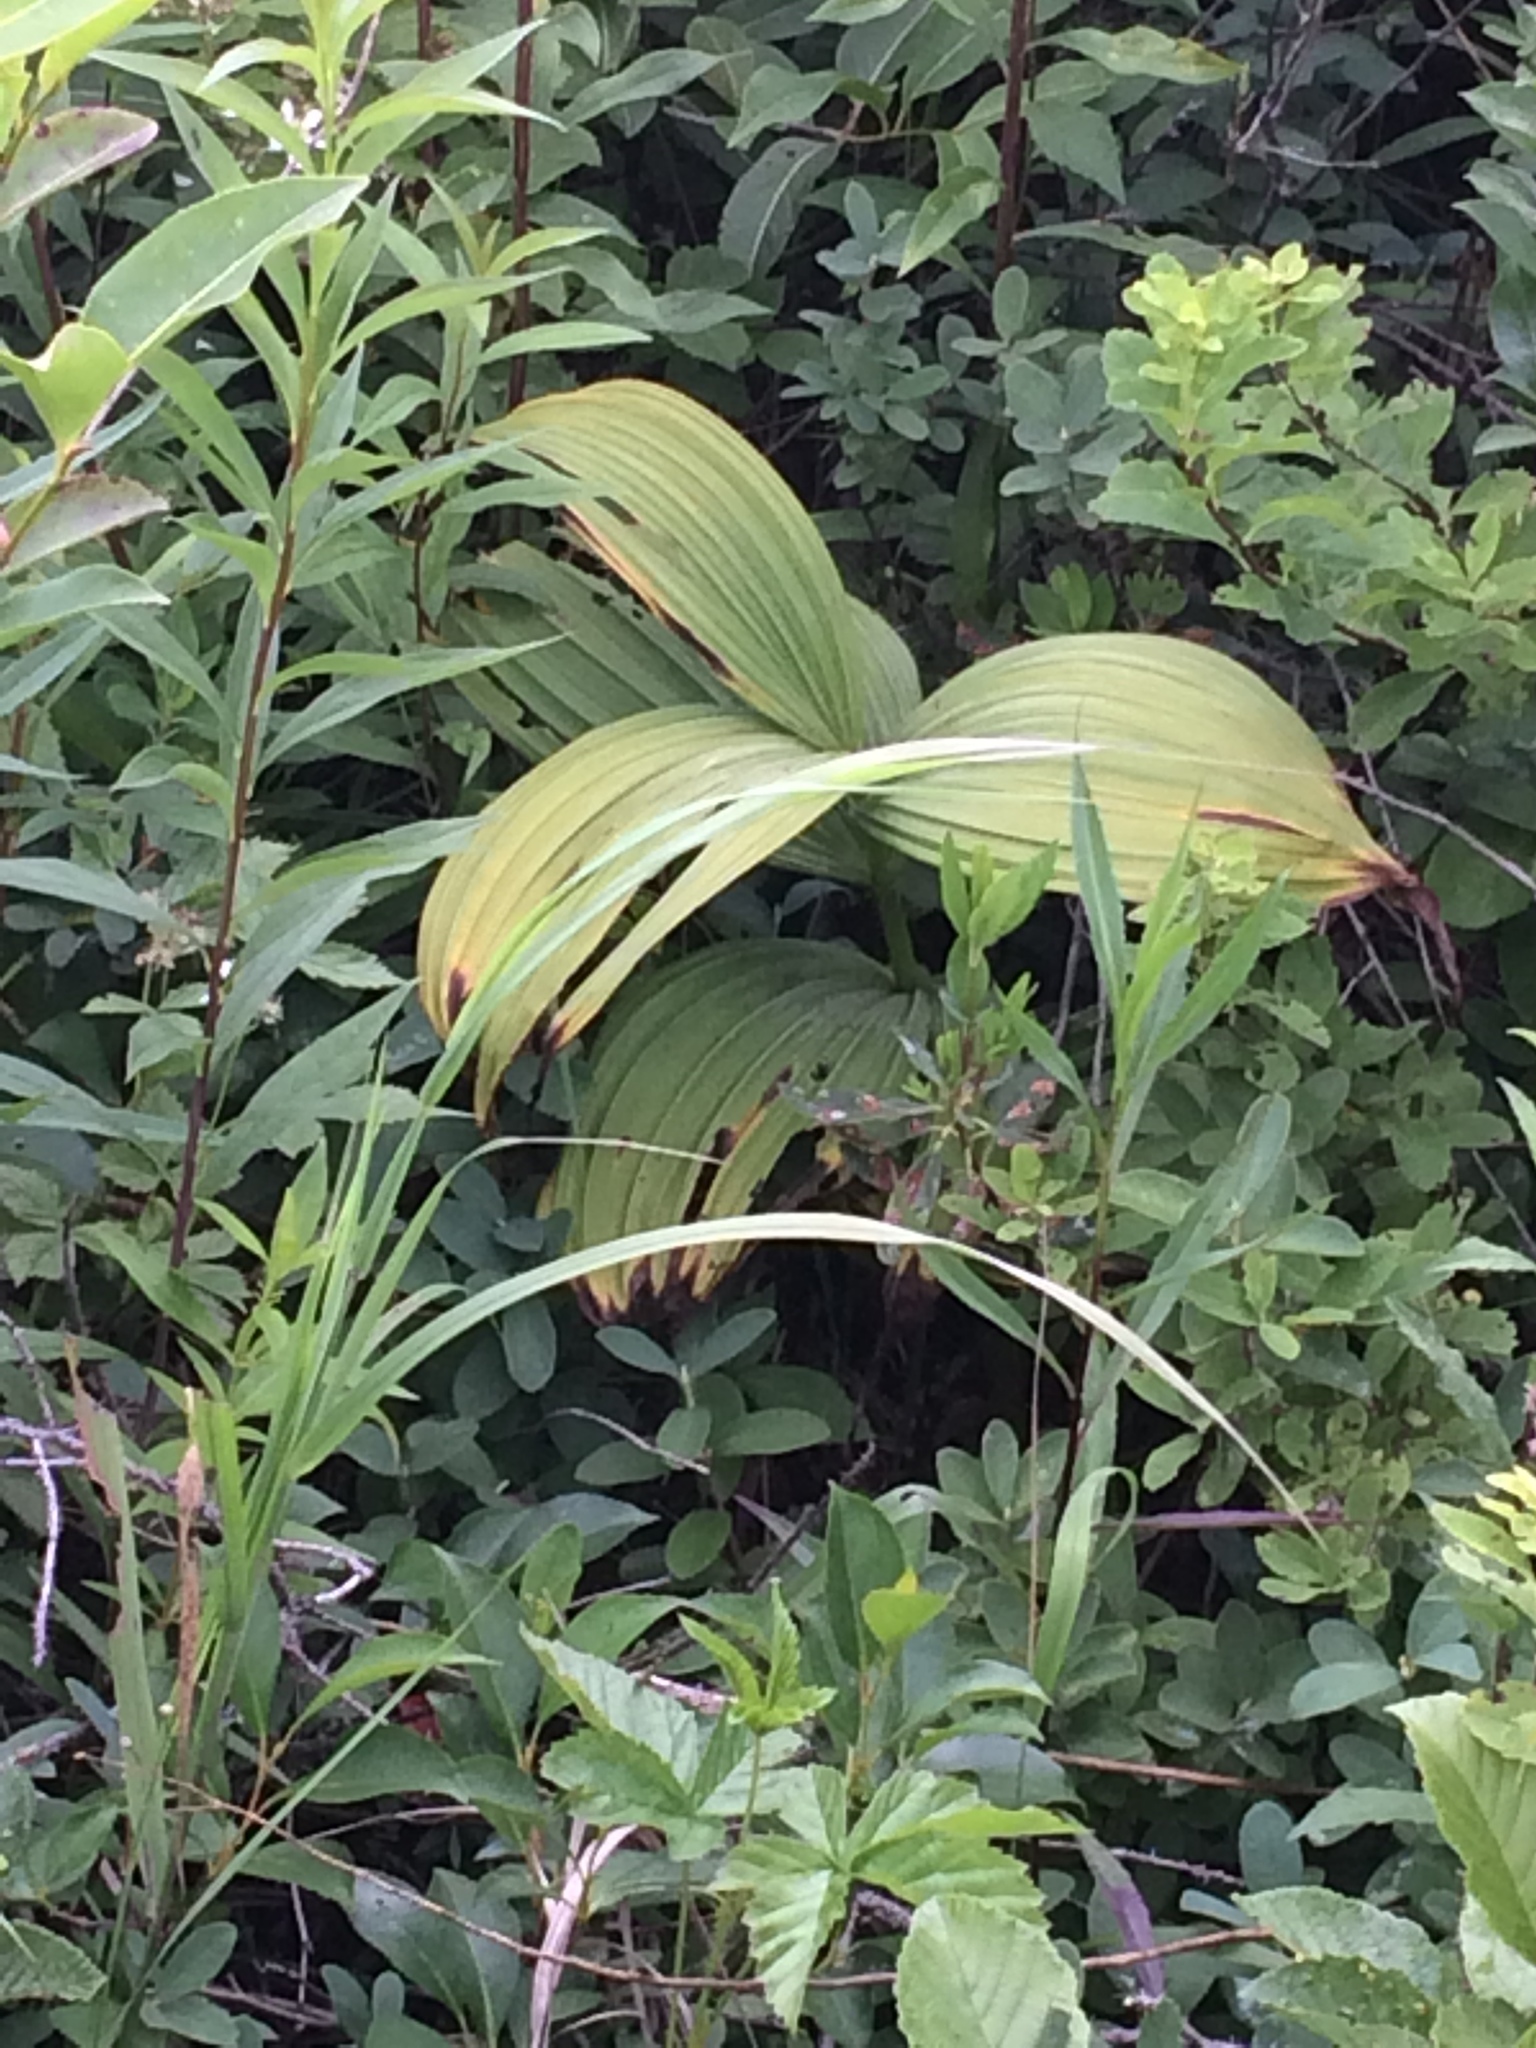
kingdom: Plantae
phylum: Tracheophyta
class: Liliopsida
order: Liliales
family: Melanthiaceae
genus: Veratrum
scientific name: Veratrum viride
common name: American false hellebore
